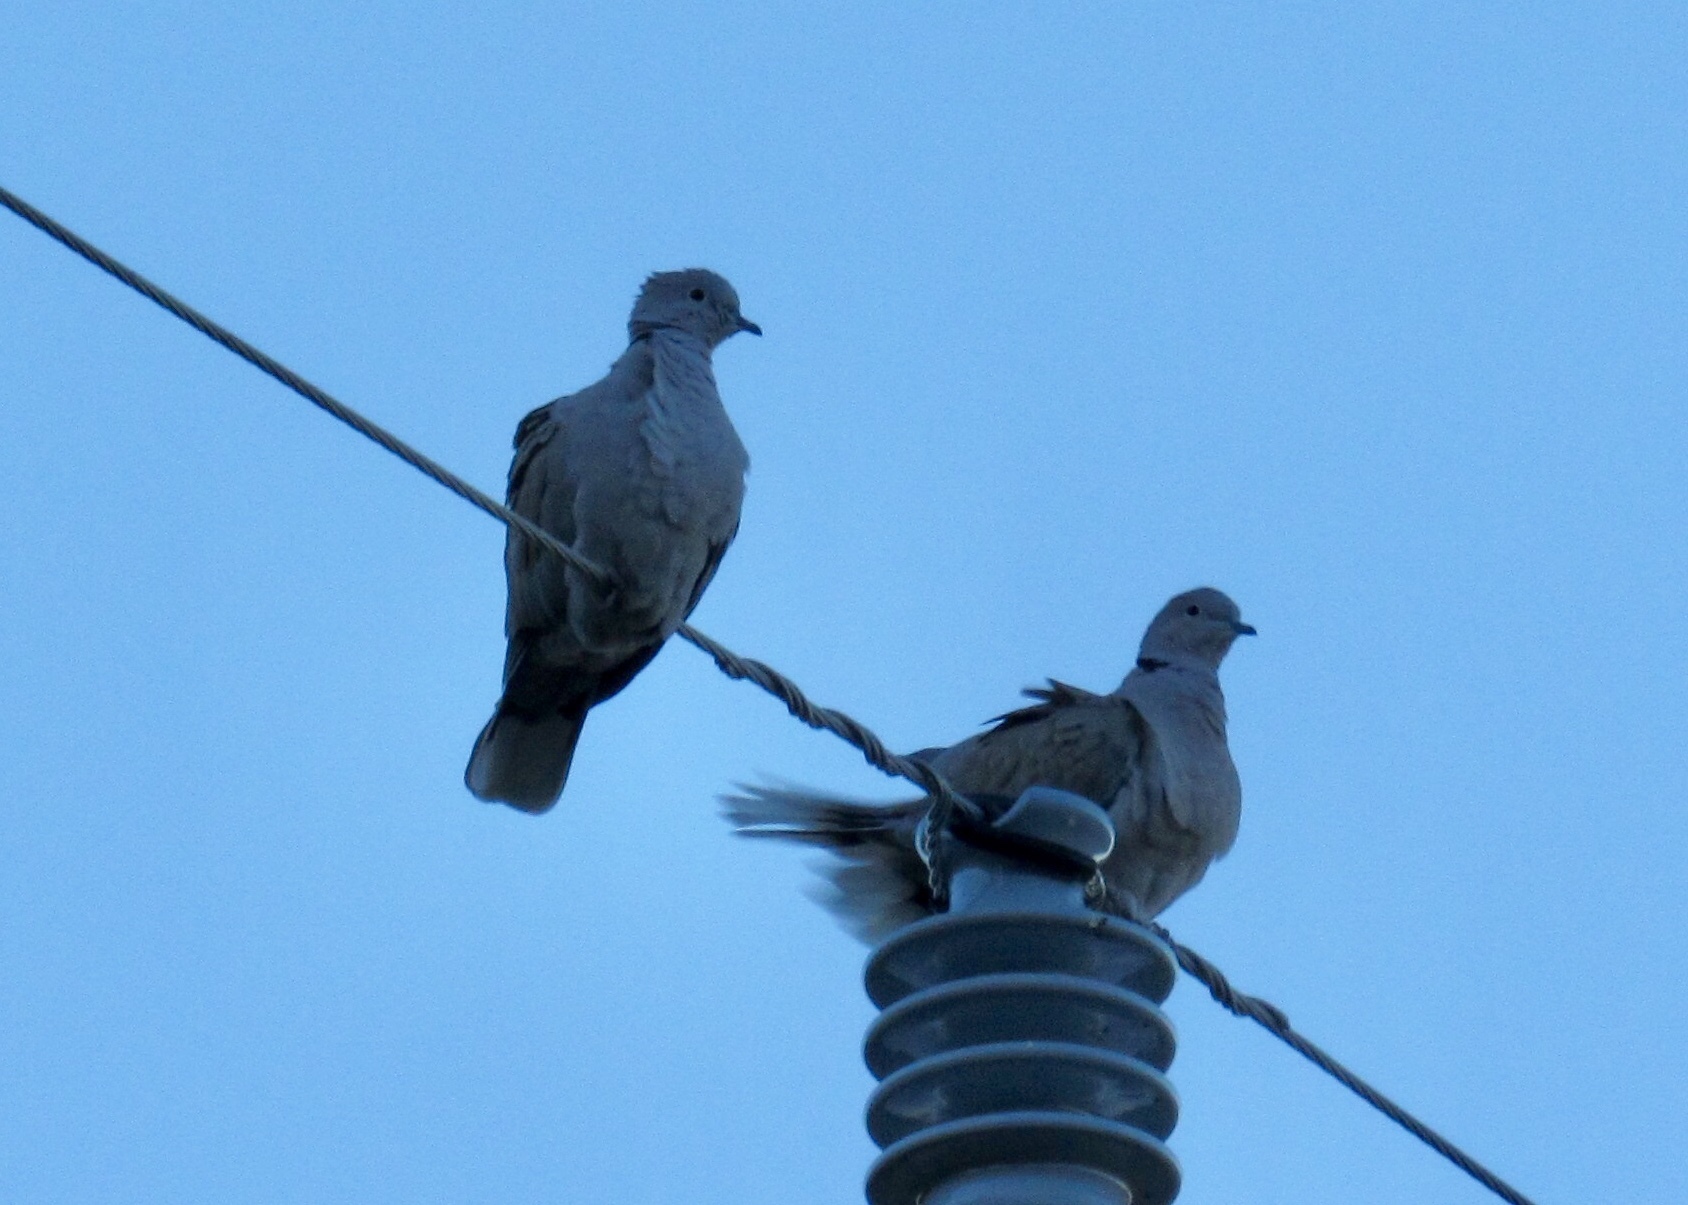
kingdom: Animalia
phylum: Chordata
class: Aves
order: Columbiformes
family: Columbidae
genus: Streptopelia
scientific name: Streptopelia decaocto
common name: Eurasian collared dove
